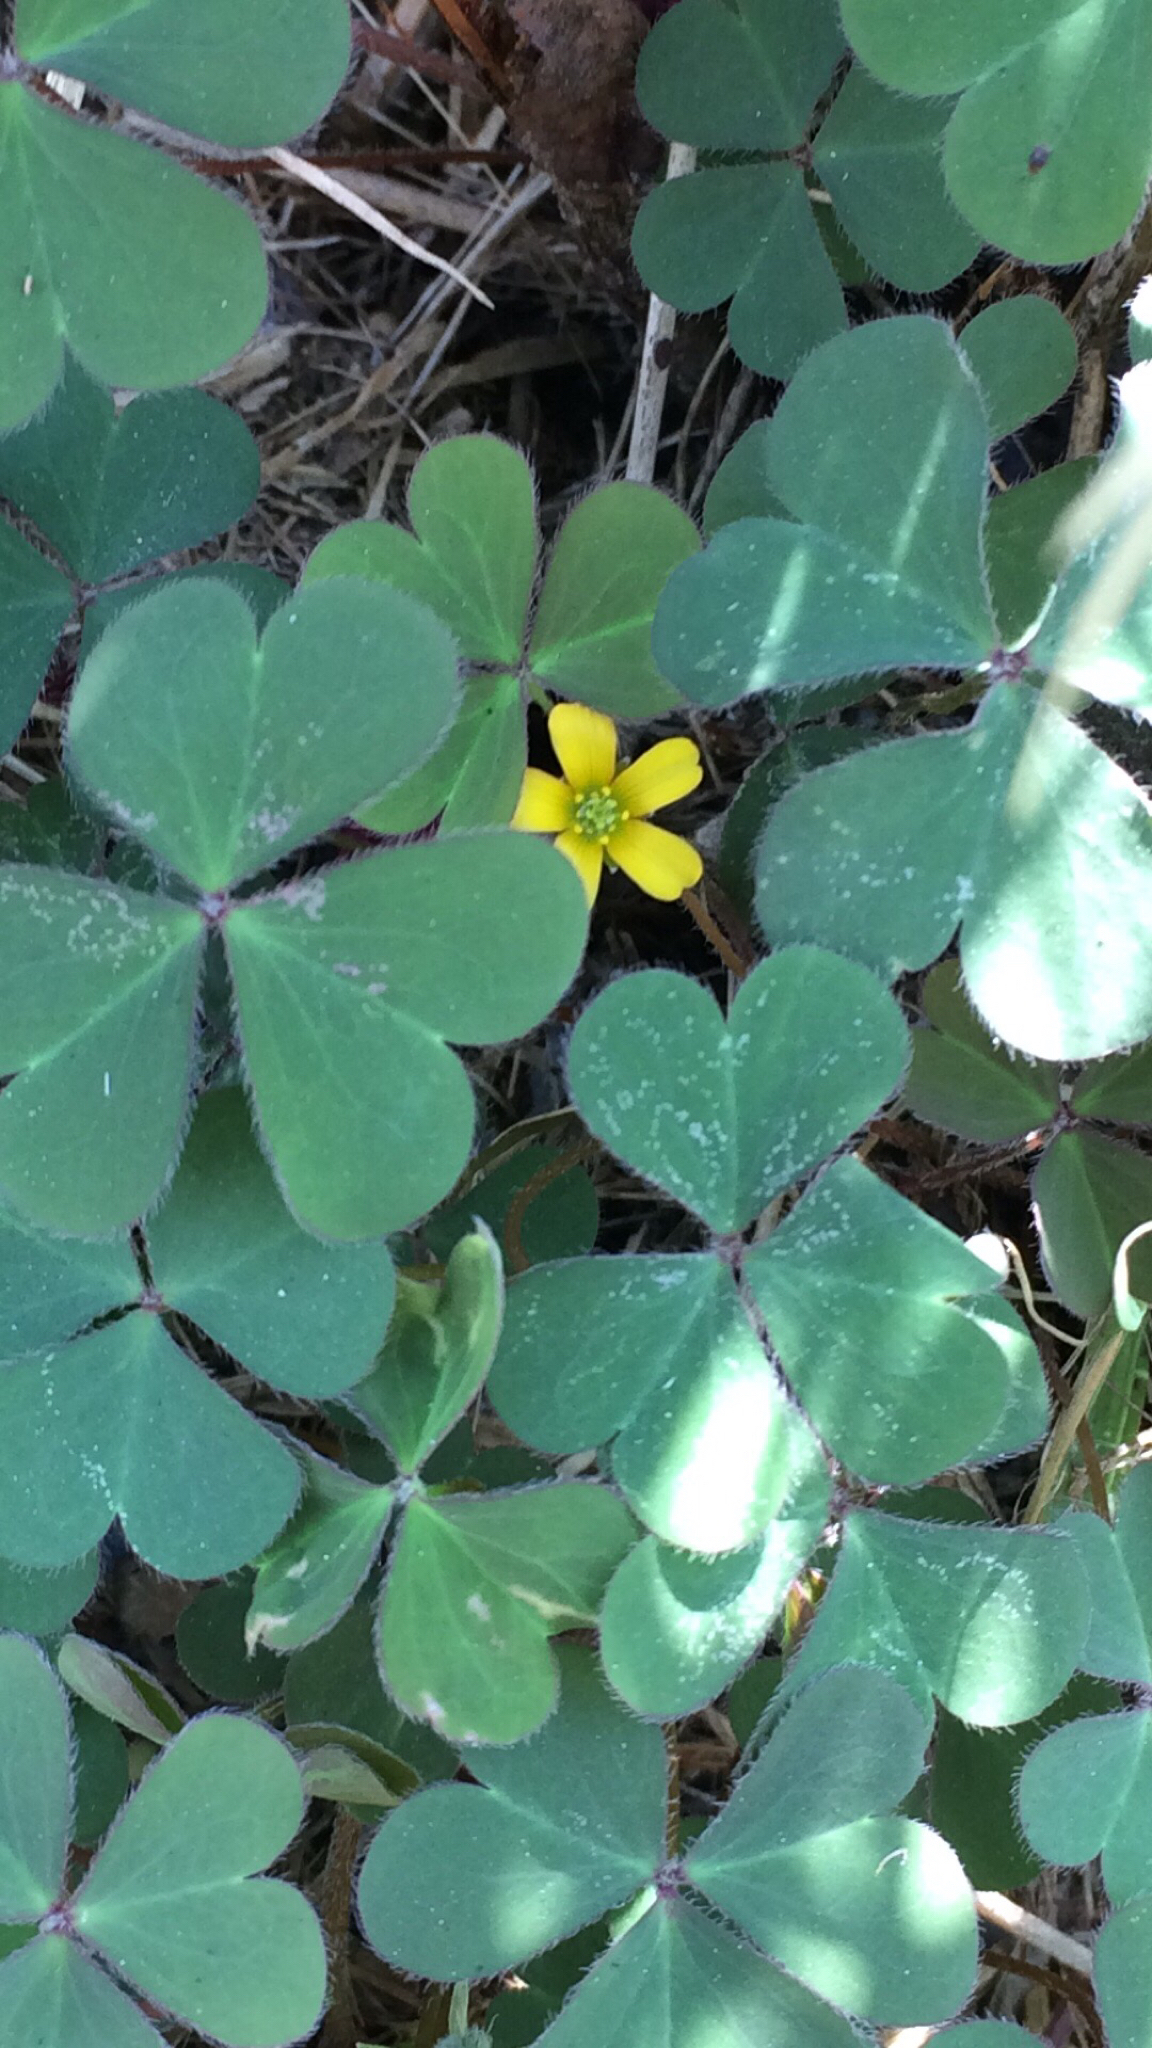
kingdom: Plantae
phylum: Tracheophyta
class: Magnoliopsida
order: Oxalidales
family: Oxalidaceae
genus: Oxalis
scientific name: Oxalis corniculata
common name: Procumbent yellow-sorrel
